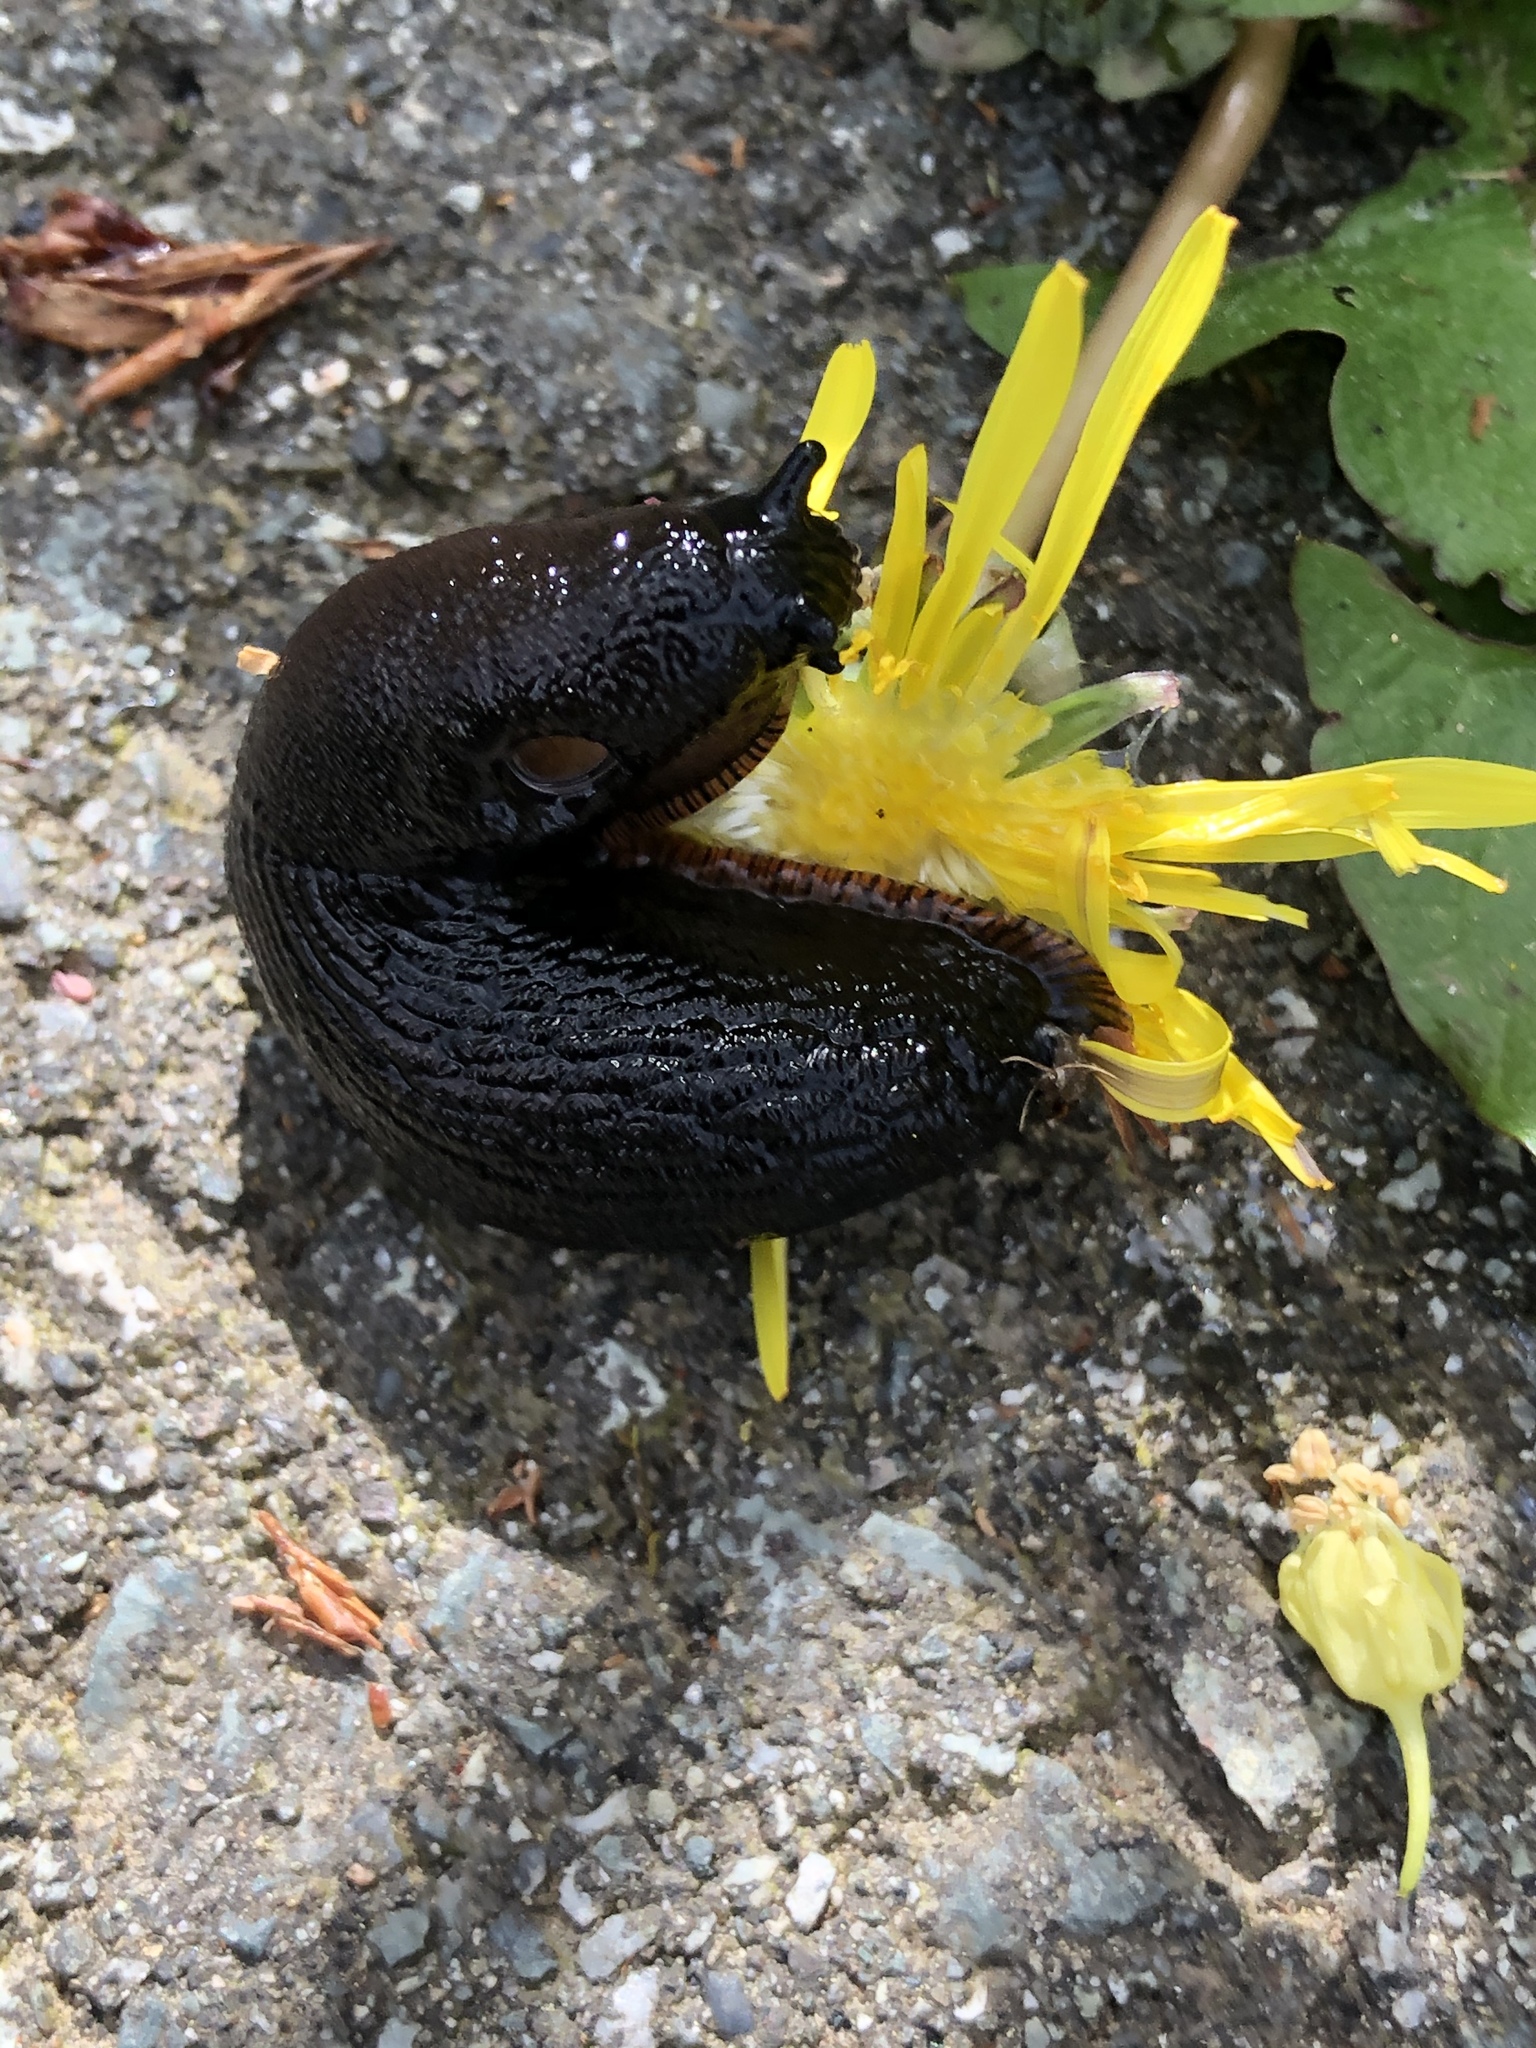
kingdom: Animalia
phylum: Mollusca
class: Gastropoda
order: Stylommatophora
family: Arionidae
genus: Arion
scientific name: Arion rufus
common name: Chocolate arion
